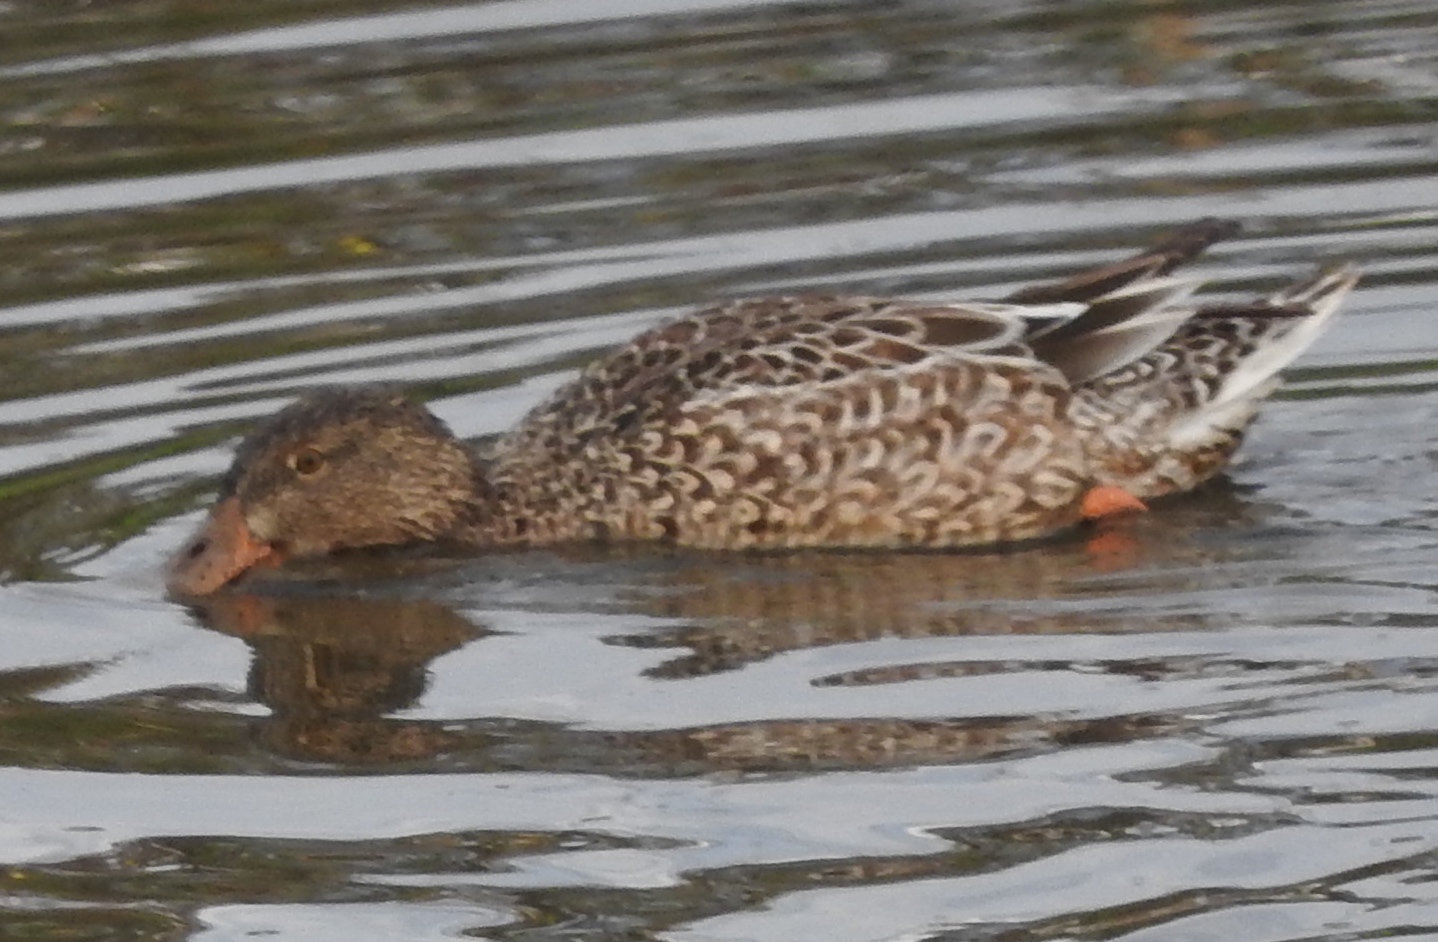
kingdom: Animalia
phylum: Chordata
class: Aves
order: Anseriformes
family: Anatidae
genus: Spatula
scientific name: Spatula clypeata
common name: Northern shoveler
